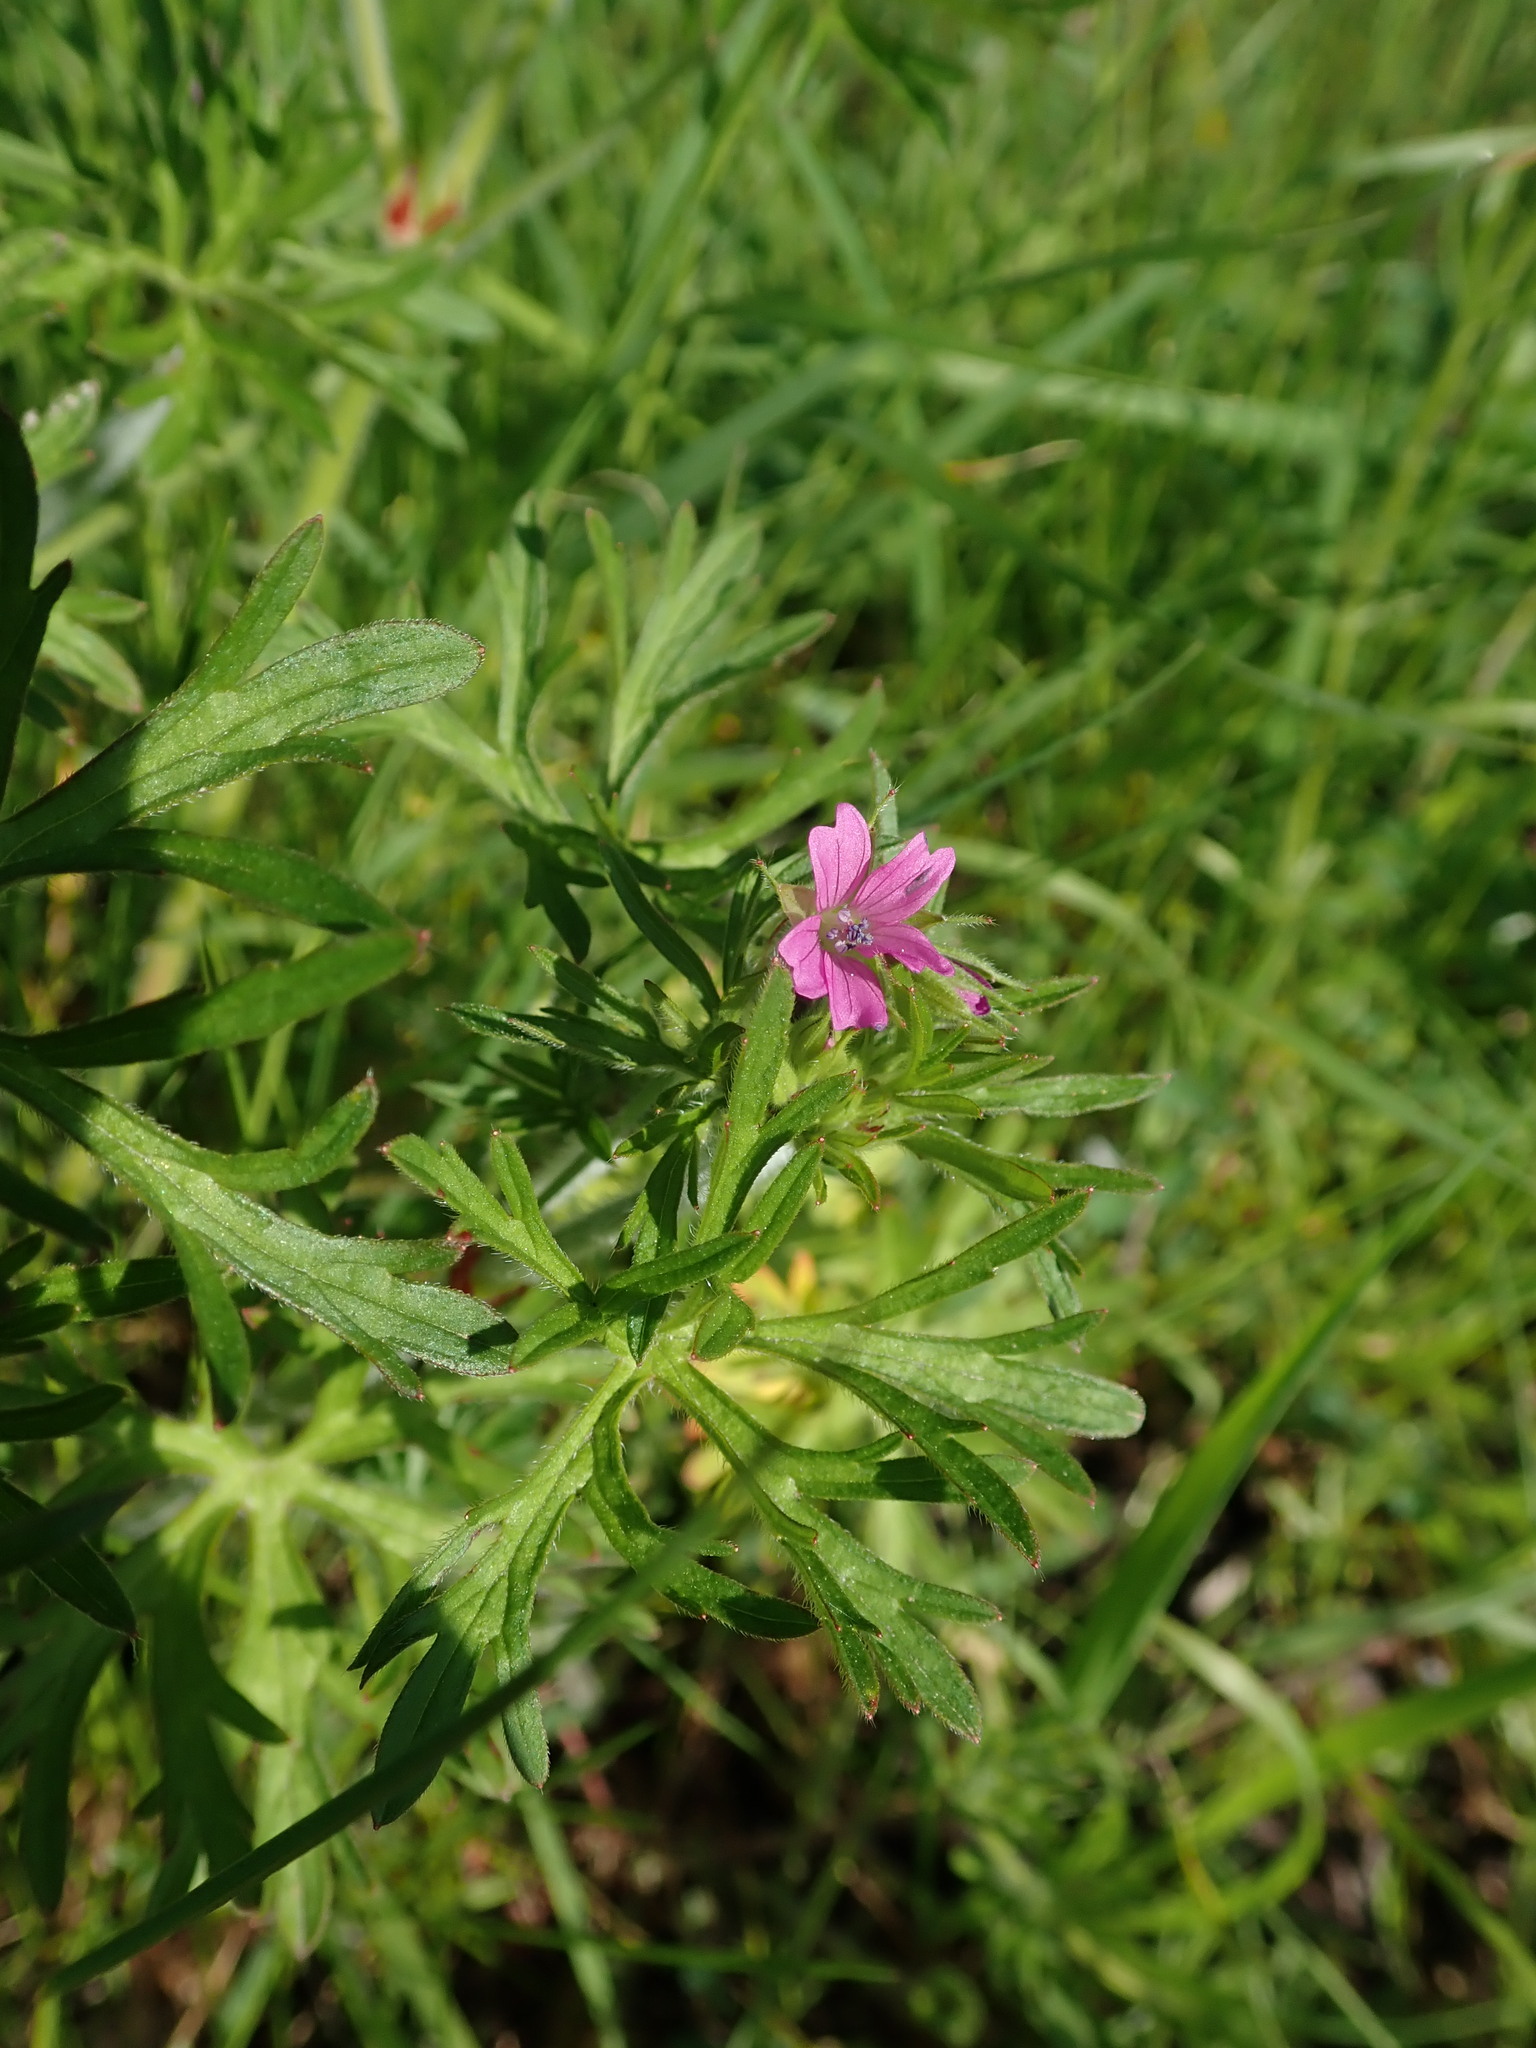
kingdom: Plantae
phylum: Tracheophyta
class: Magnoliopsida
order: Geraniales
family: Geraniaceae
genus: Geranium
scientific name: Geranium dissectum
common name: Cut-leaved crane's-bill
